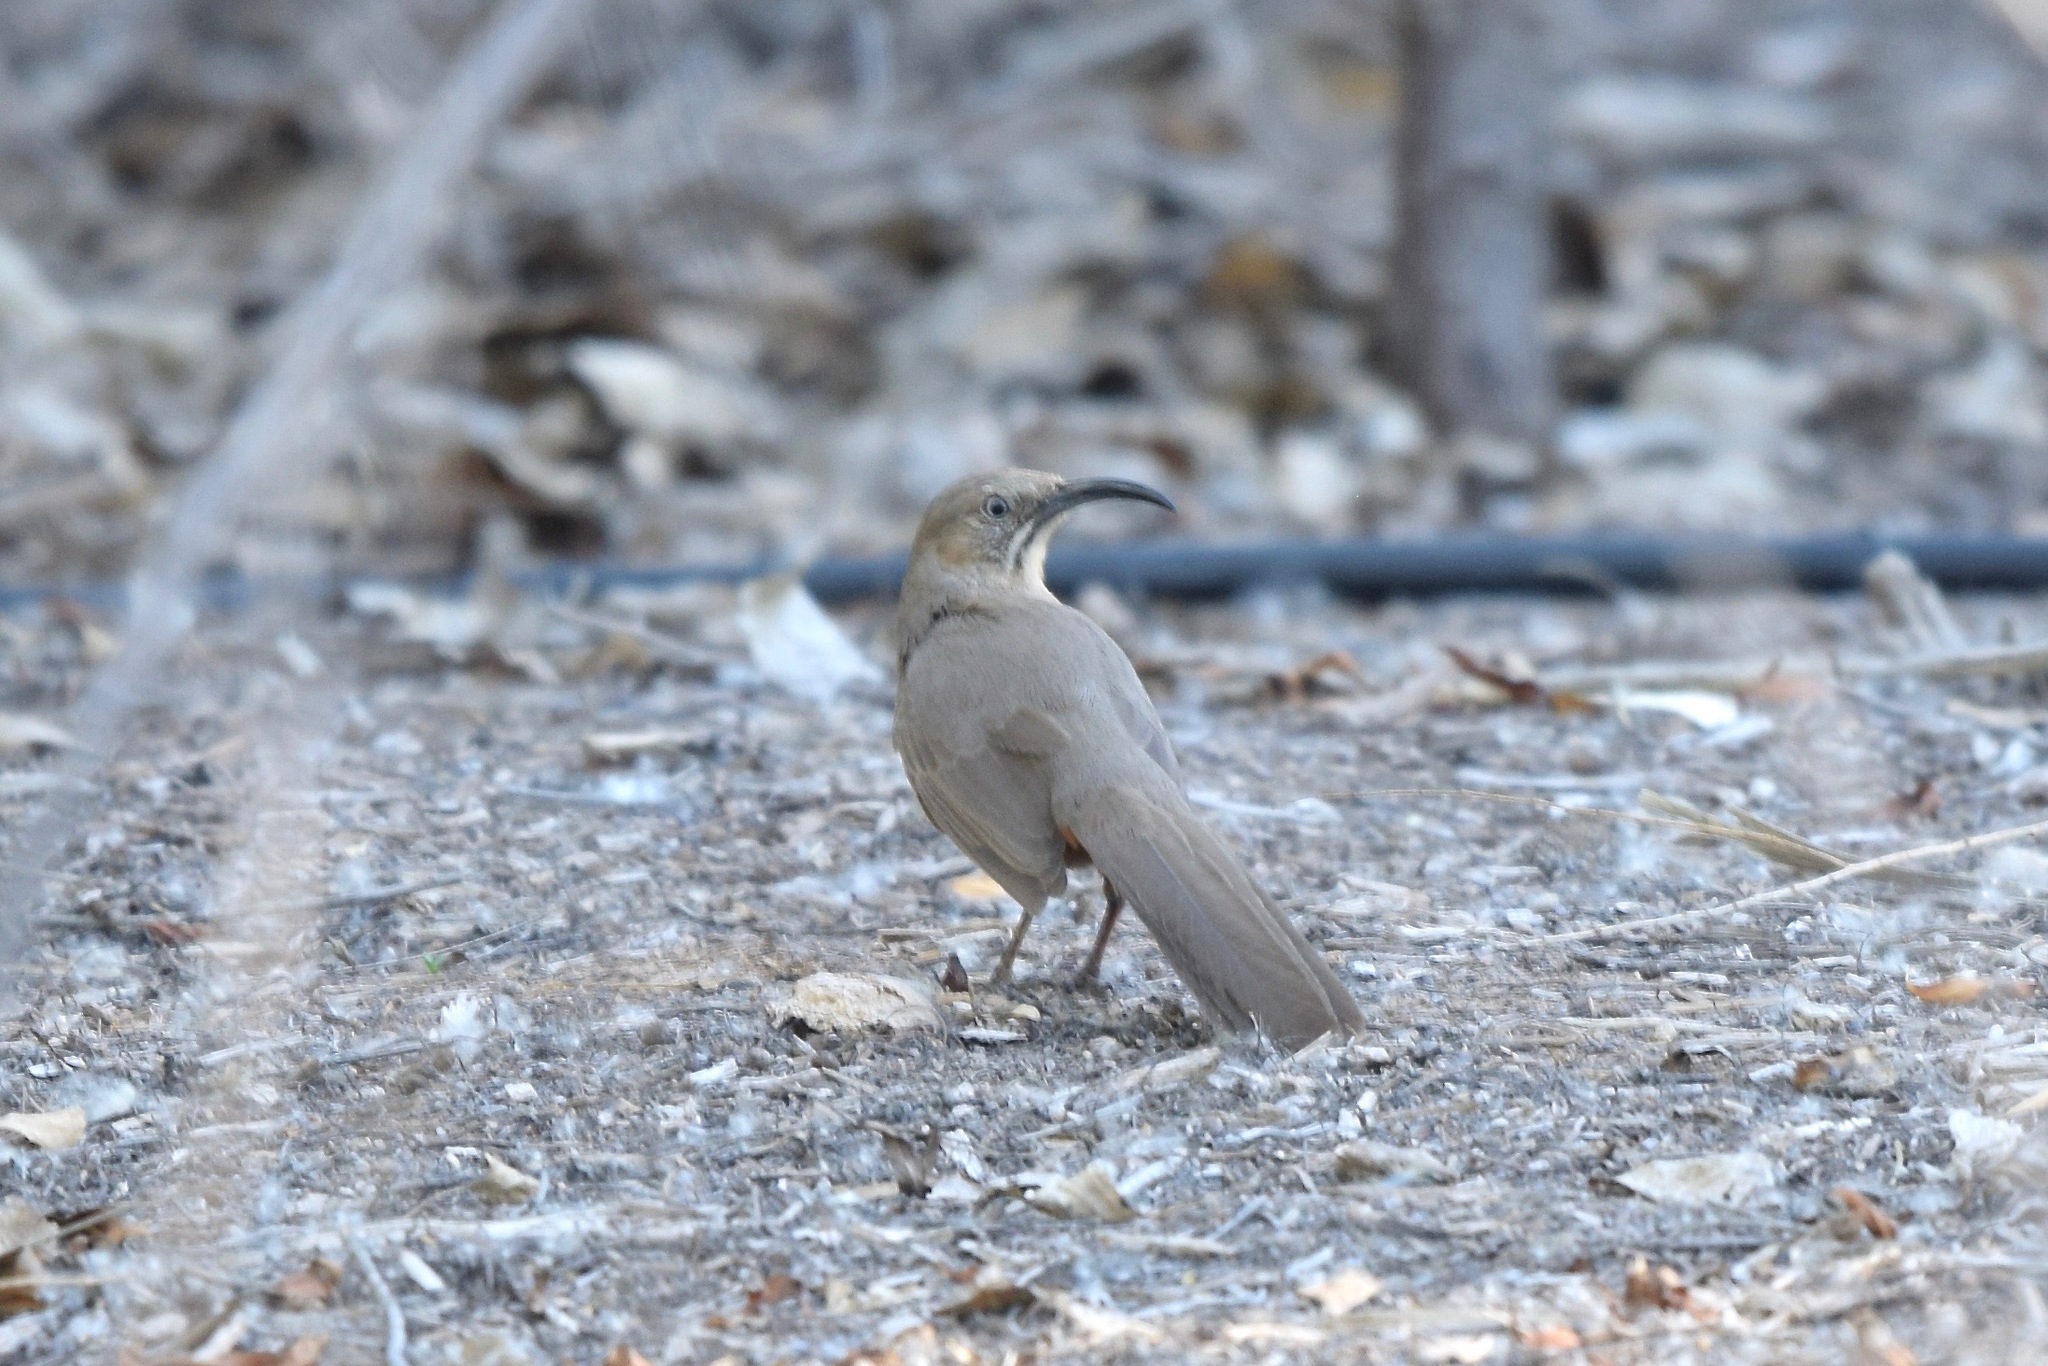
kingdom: Animalia
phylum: Chordata
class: Aves
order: Passeriformes
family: Mimidae
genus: Toxostoma
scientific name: Toxostoma crissale
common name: Crissal thrasher
